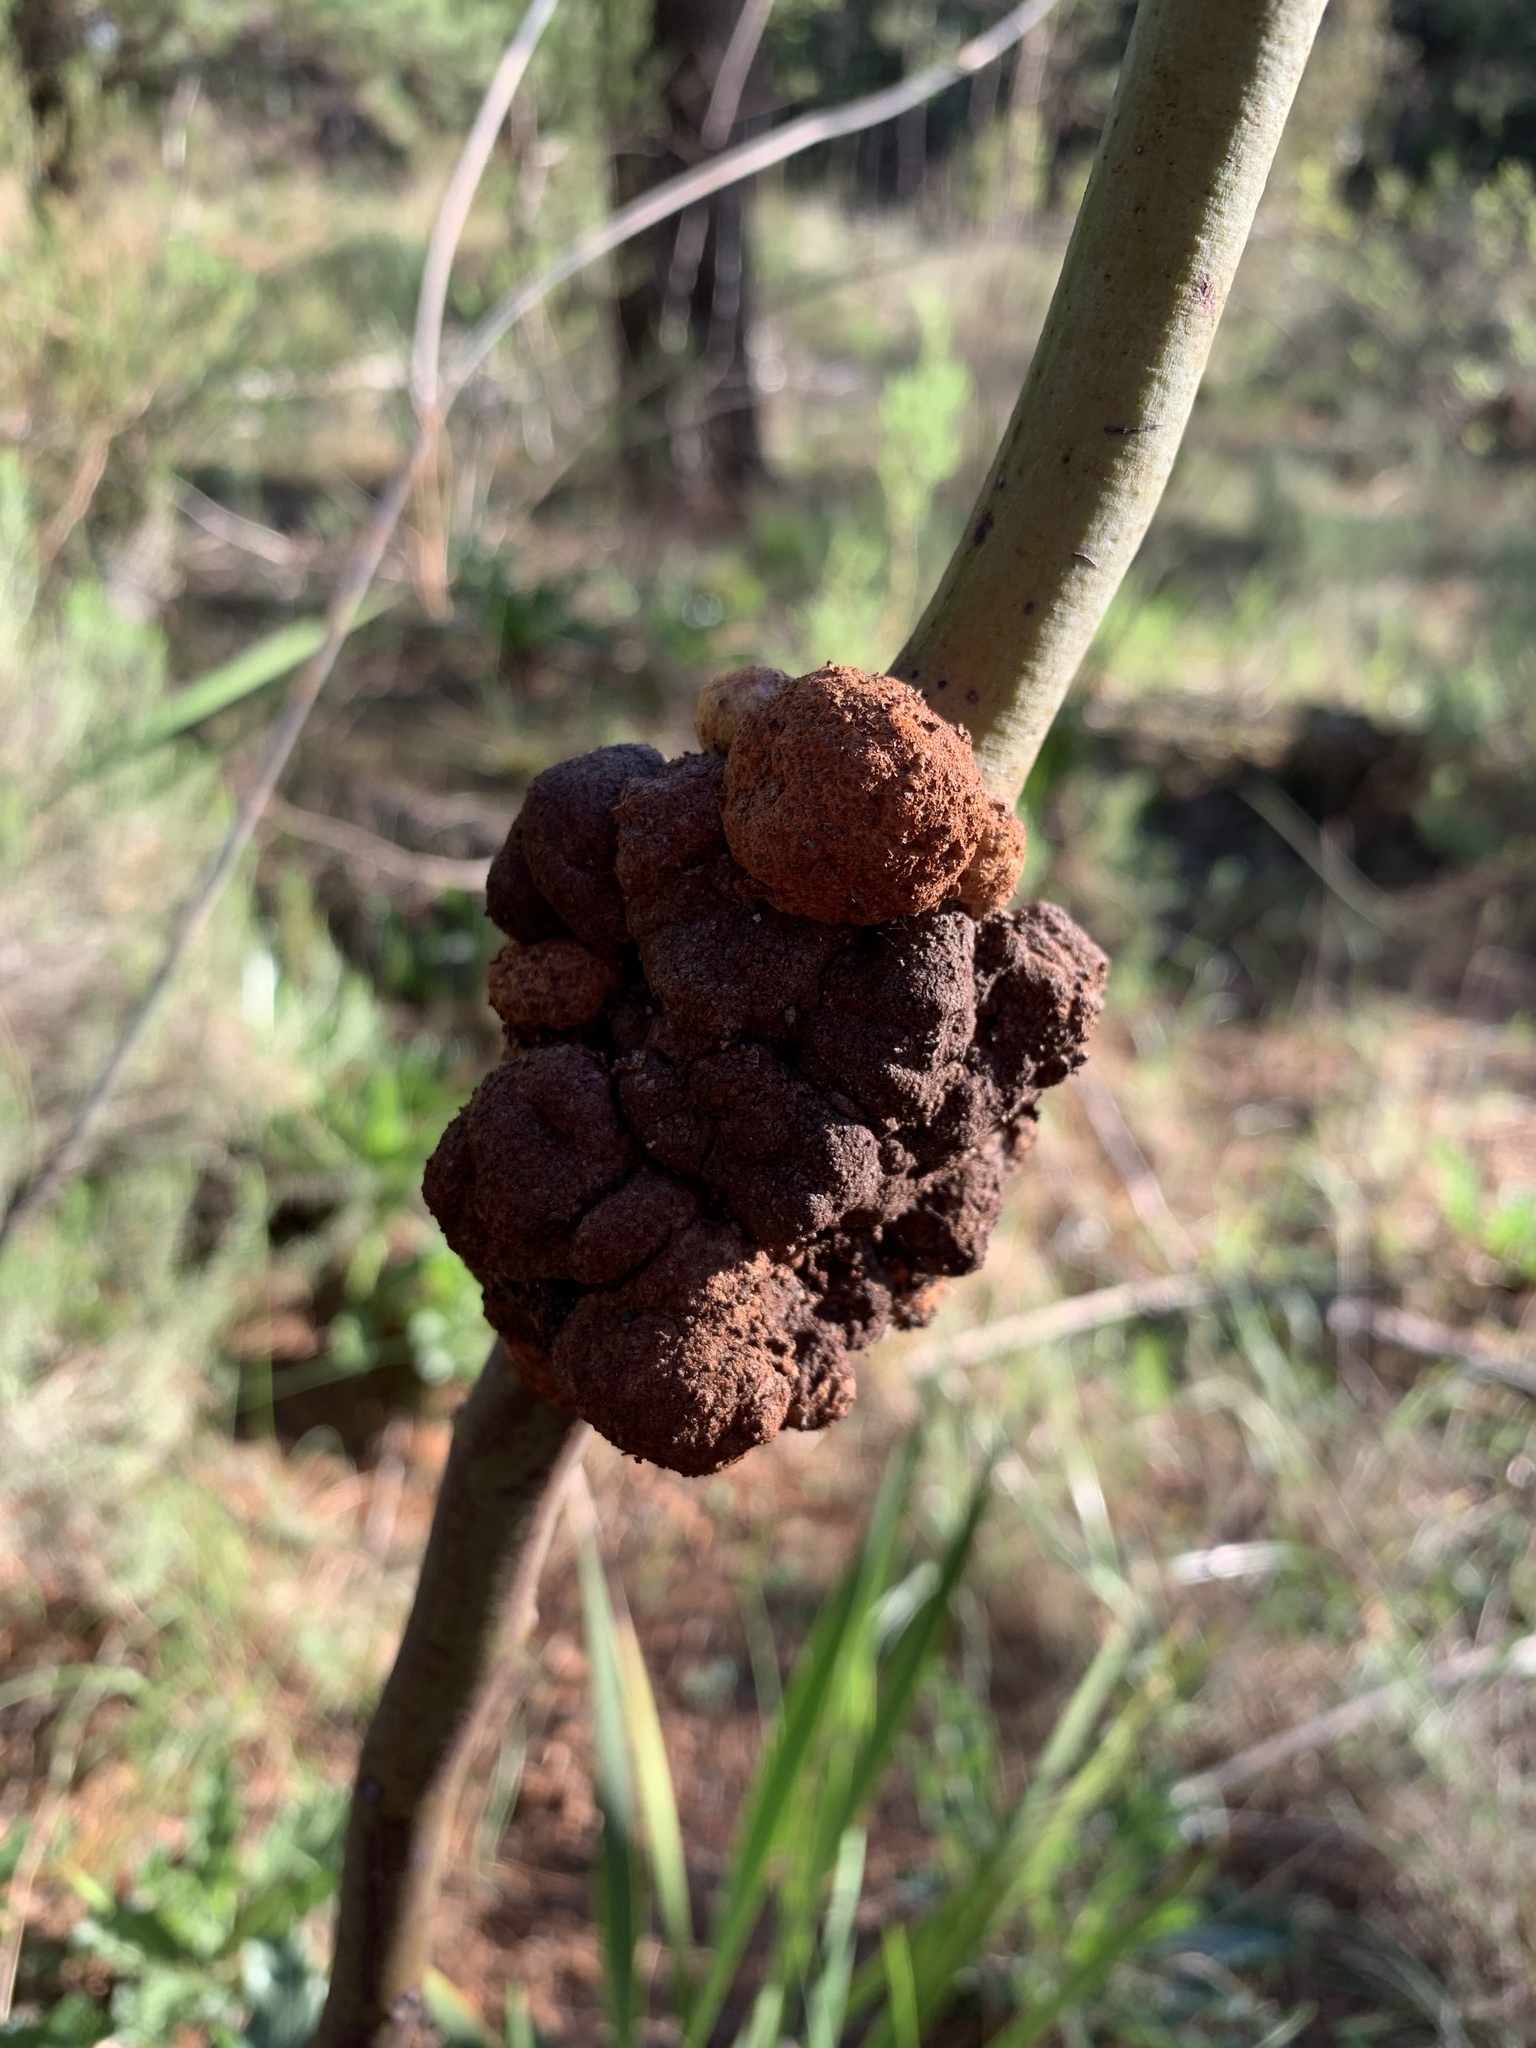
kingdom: Fungi
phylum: Basidiomycota
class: Pucciniomycetes
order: Pucciniales
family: Uromycladiaceae
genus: Uromycladium
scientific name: Uromycladium morrisii
